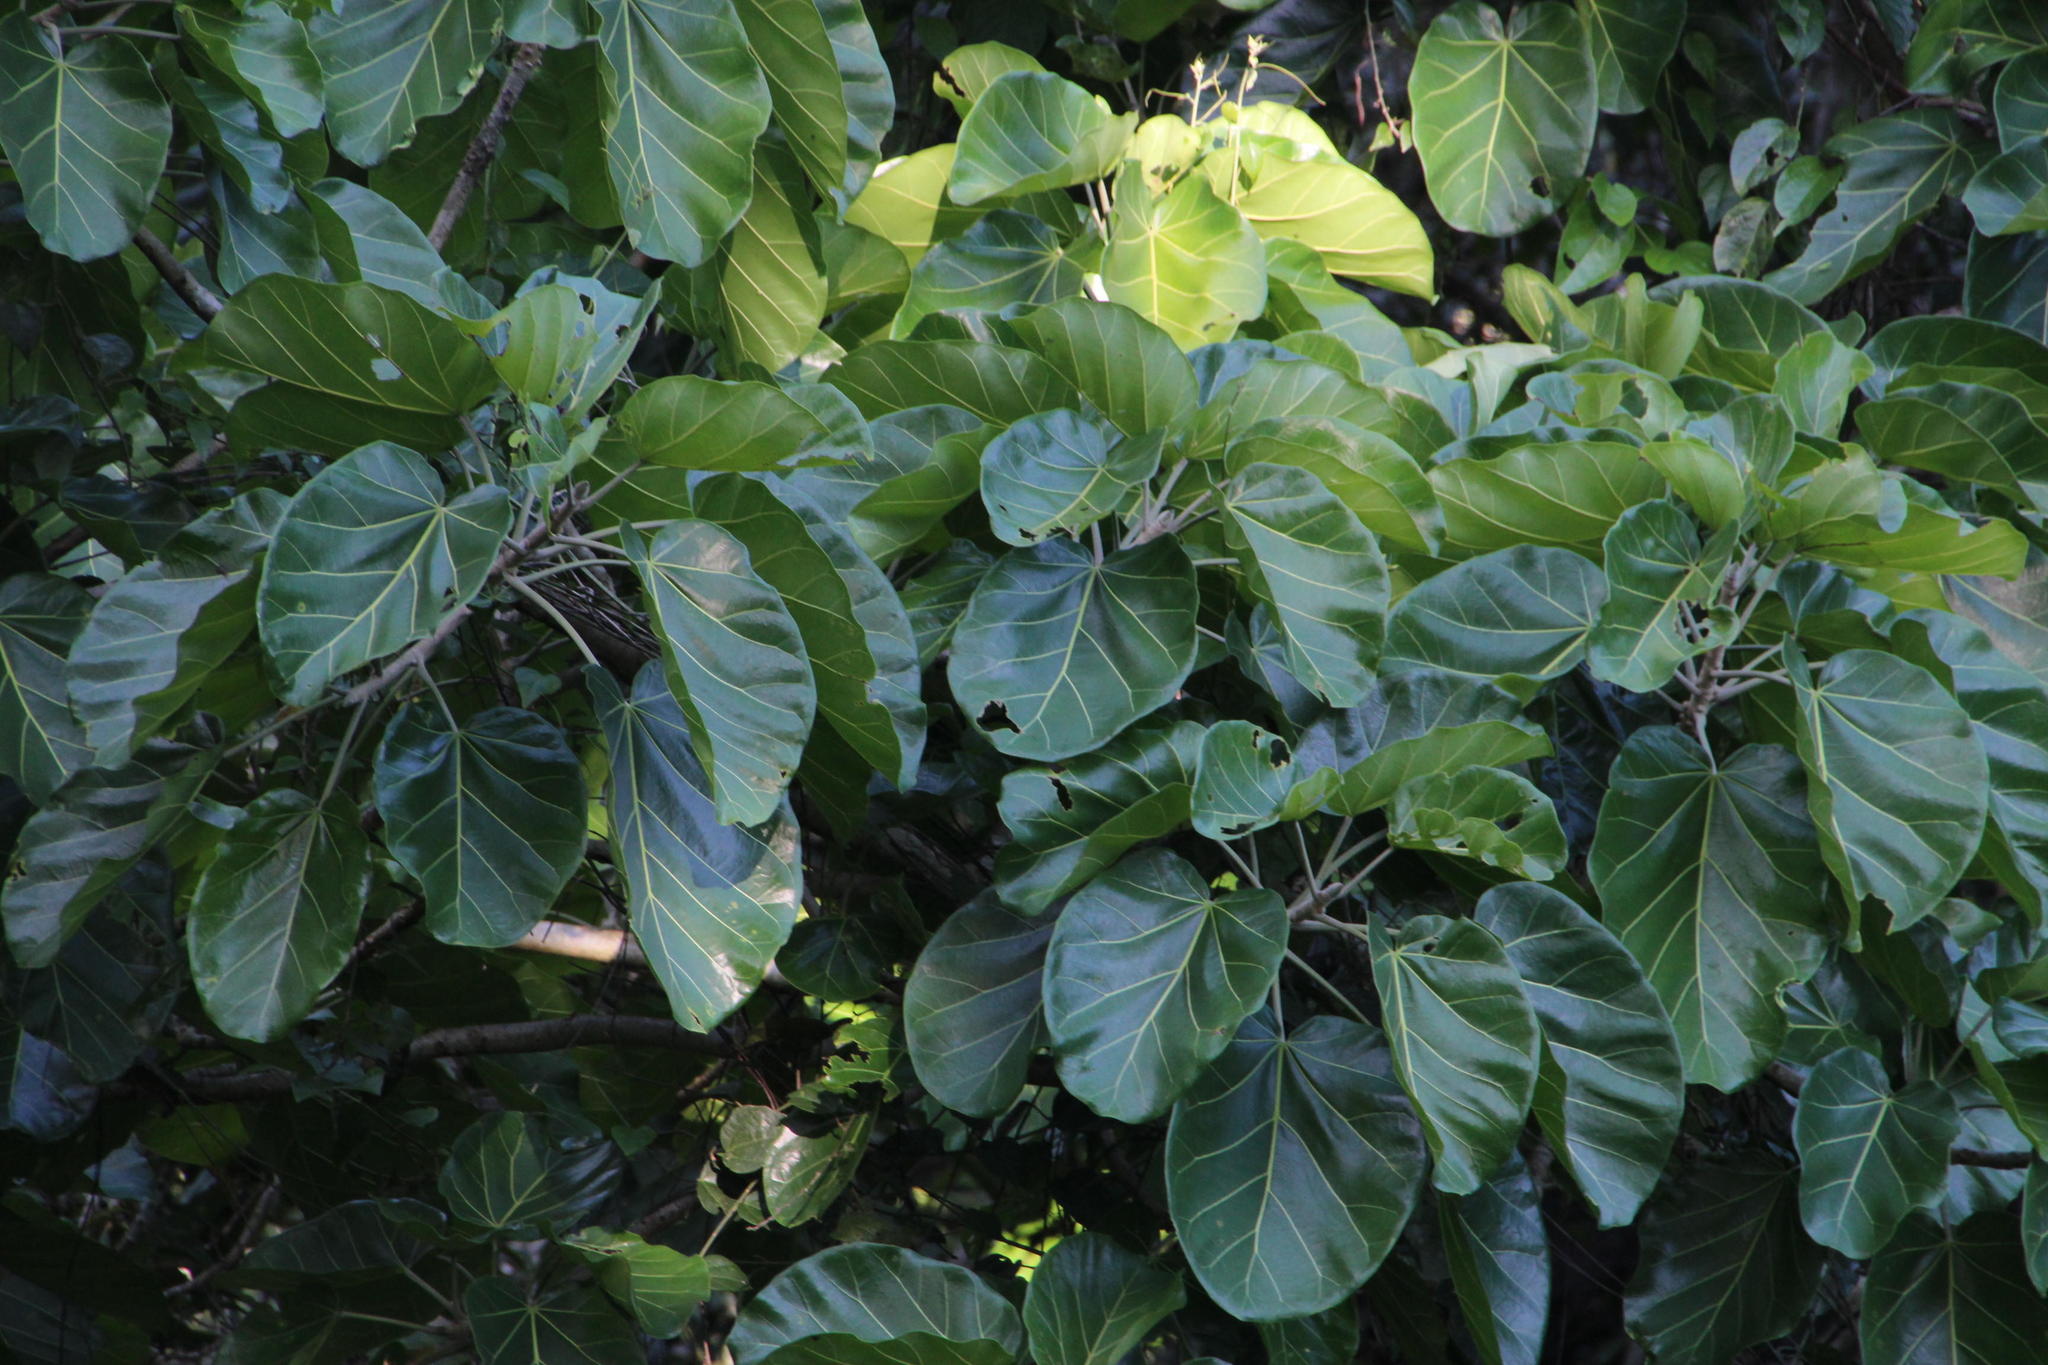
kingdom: Plantae
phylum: Tracheophyta
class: Magnoliopsida
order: Rosales
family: Moraceae
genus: Ficus
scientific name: Ficus ypsilophlebia
